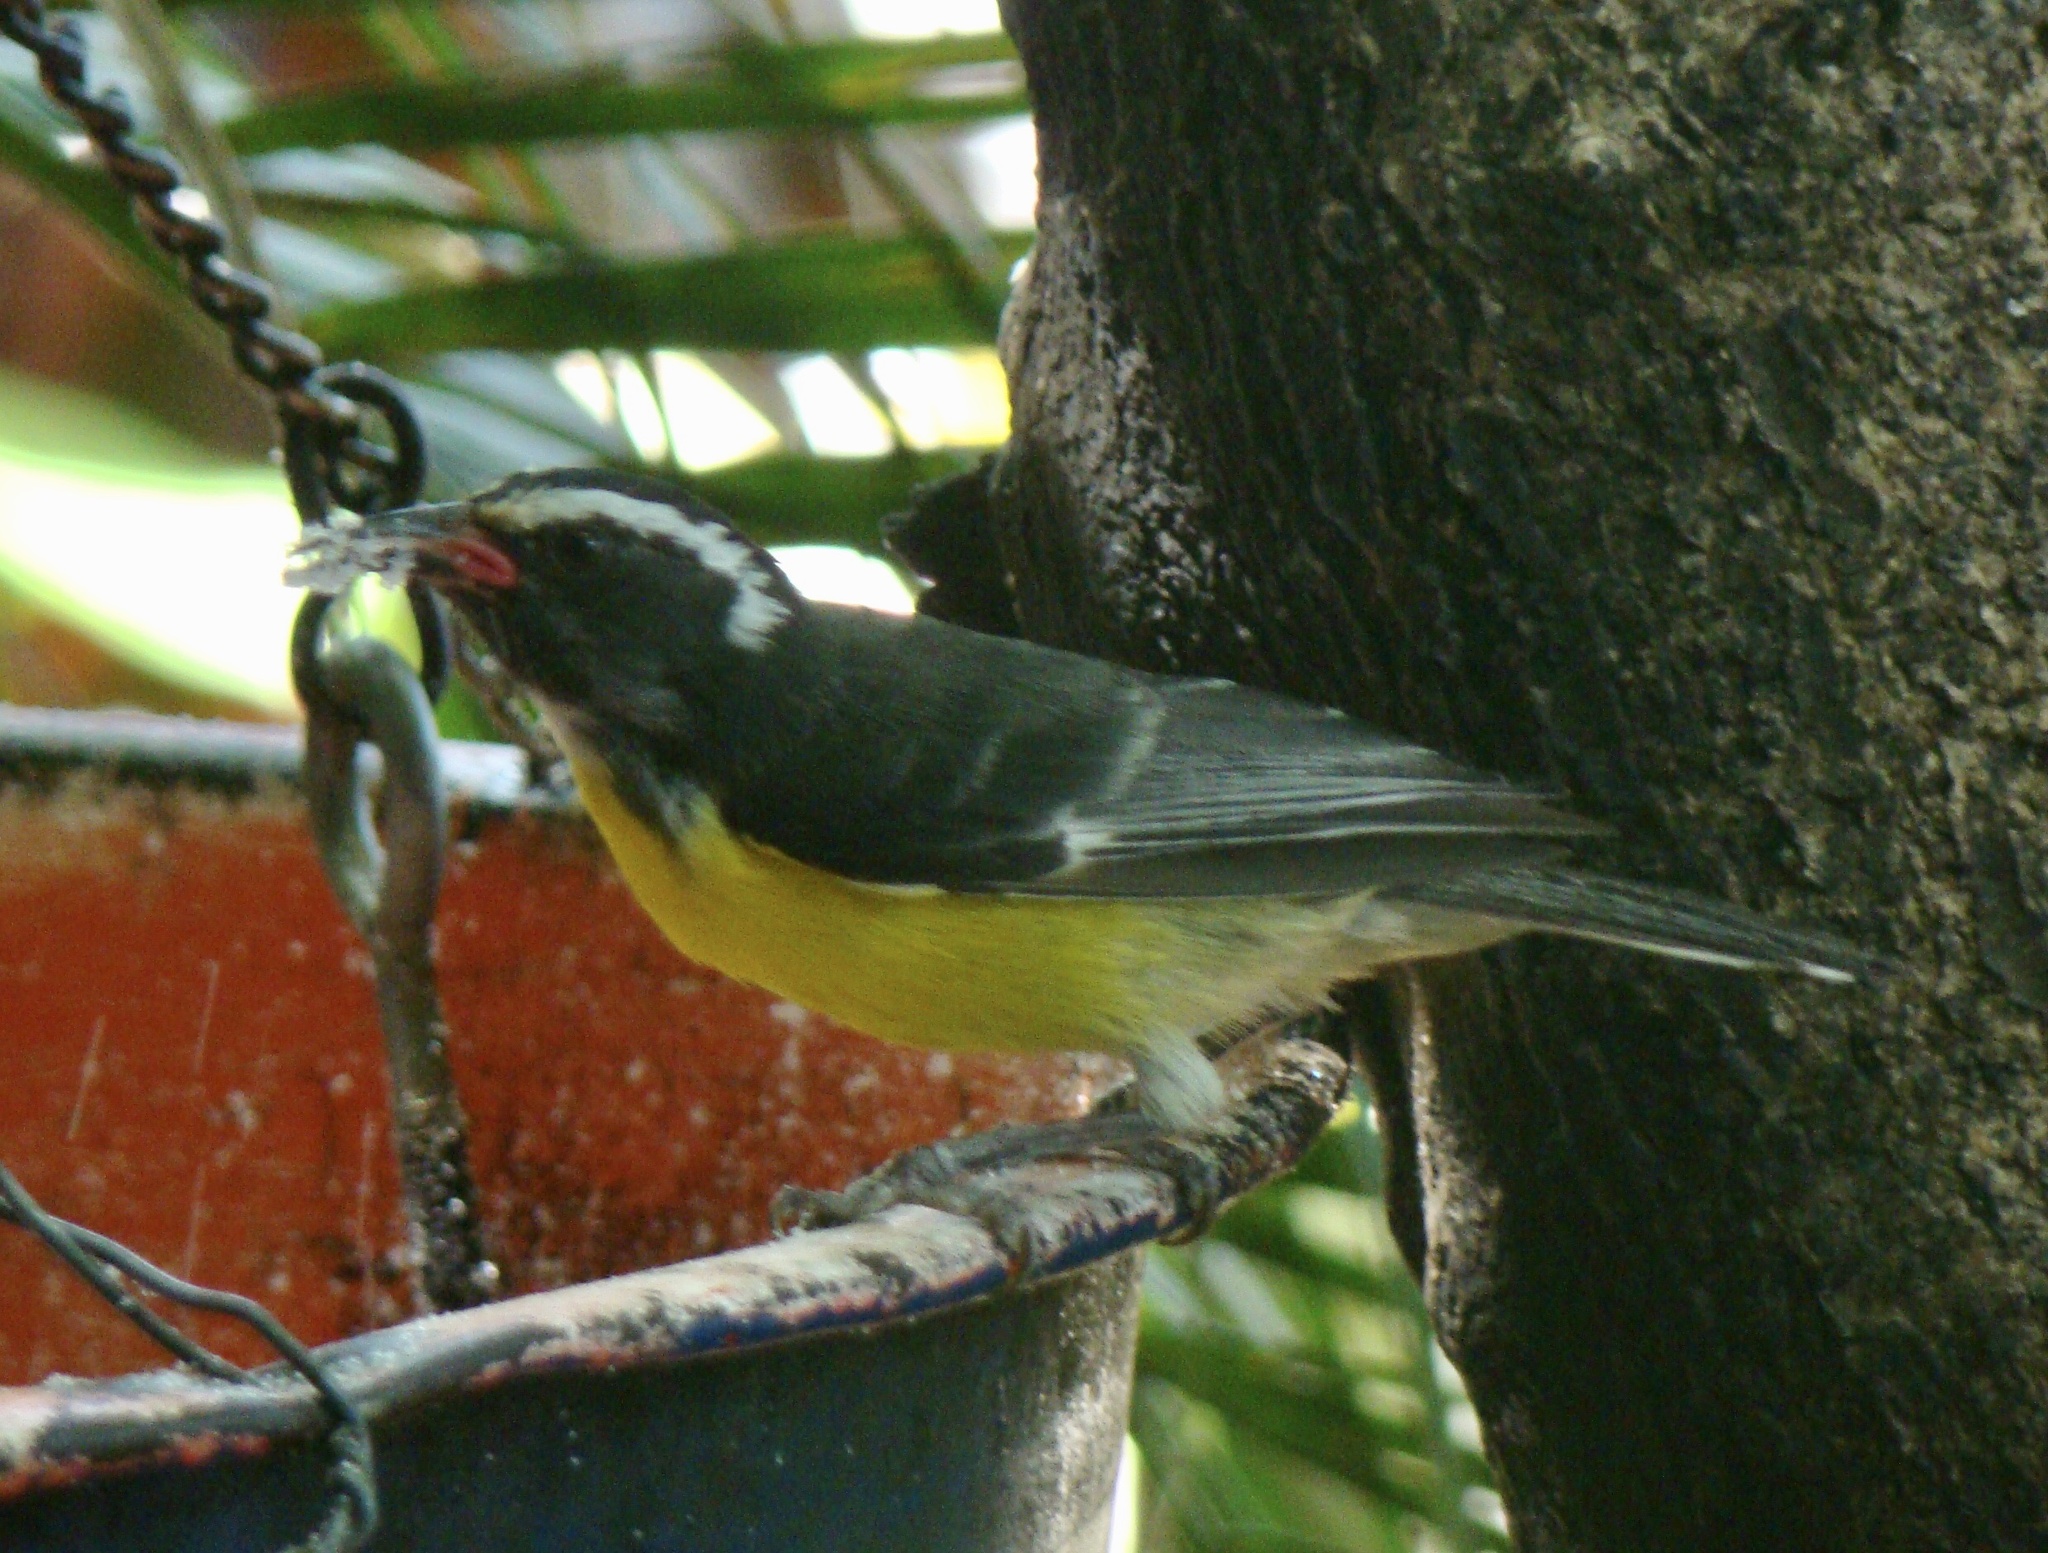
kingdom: Animalia
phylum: Chordata
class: Aves
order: Passeriformes
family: Thraupidae
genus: Coereba
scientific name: Coereba flaveola
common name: Bananaquit
